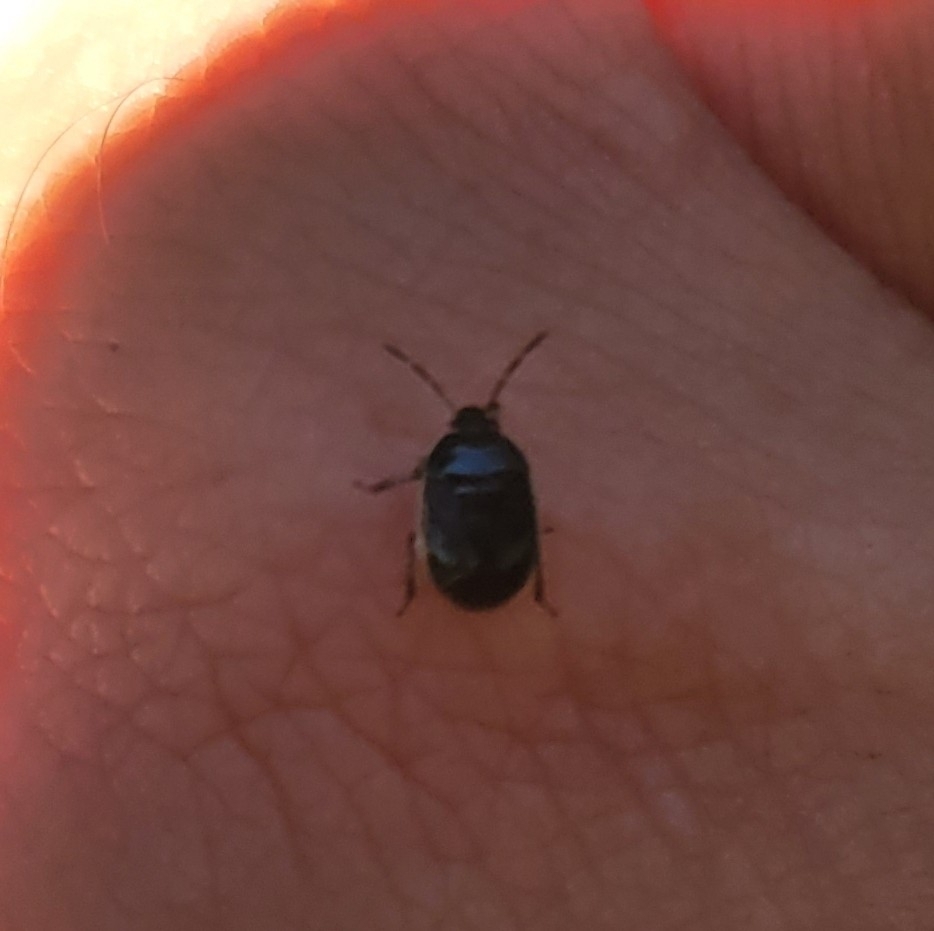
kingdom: Animalia
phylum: Arthropoda
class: Insecta
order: Hemiptera
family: Cydnidae
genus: Sehirus
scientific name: Sehirus cinctus
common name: White-margined burrower bug
